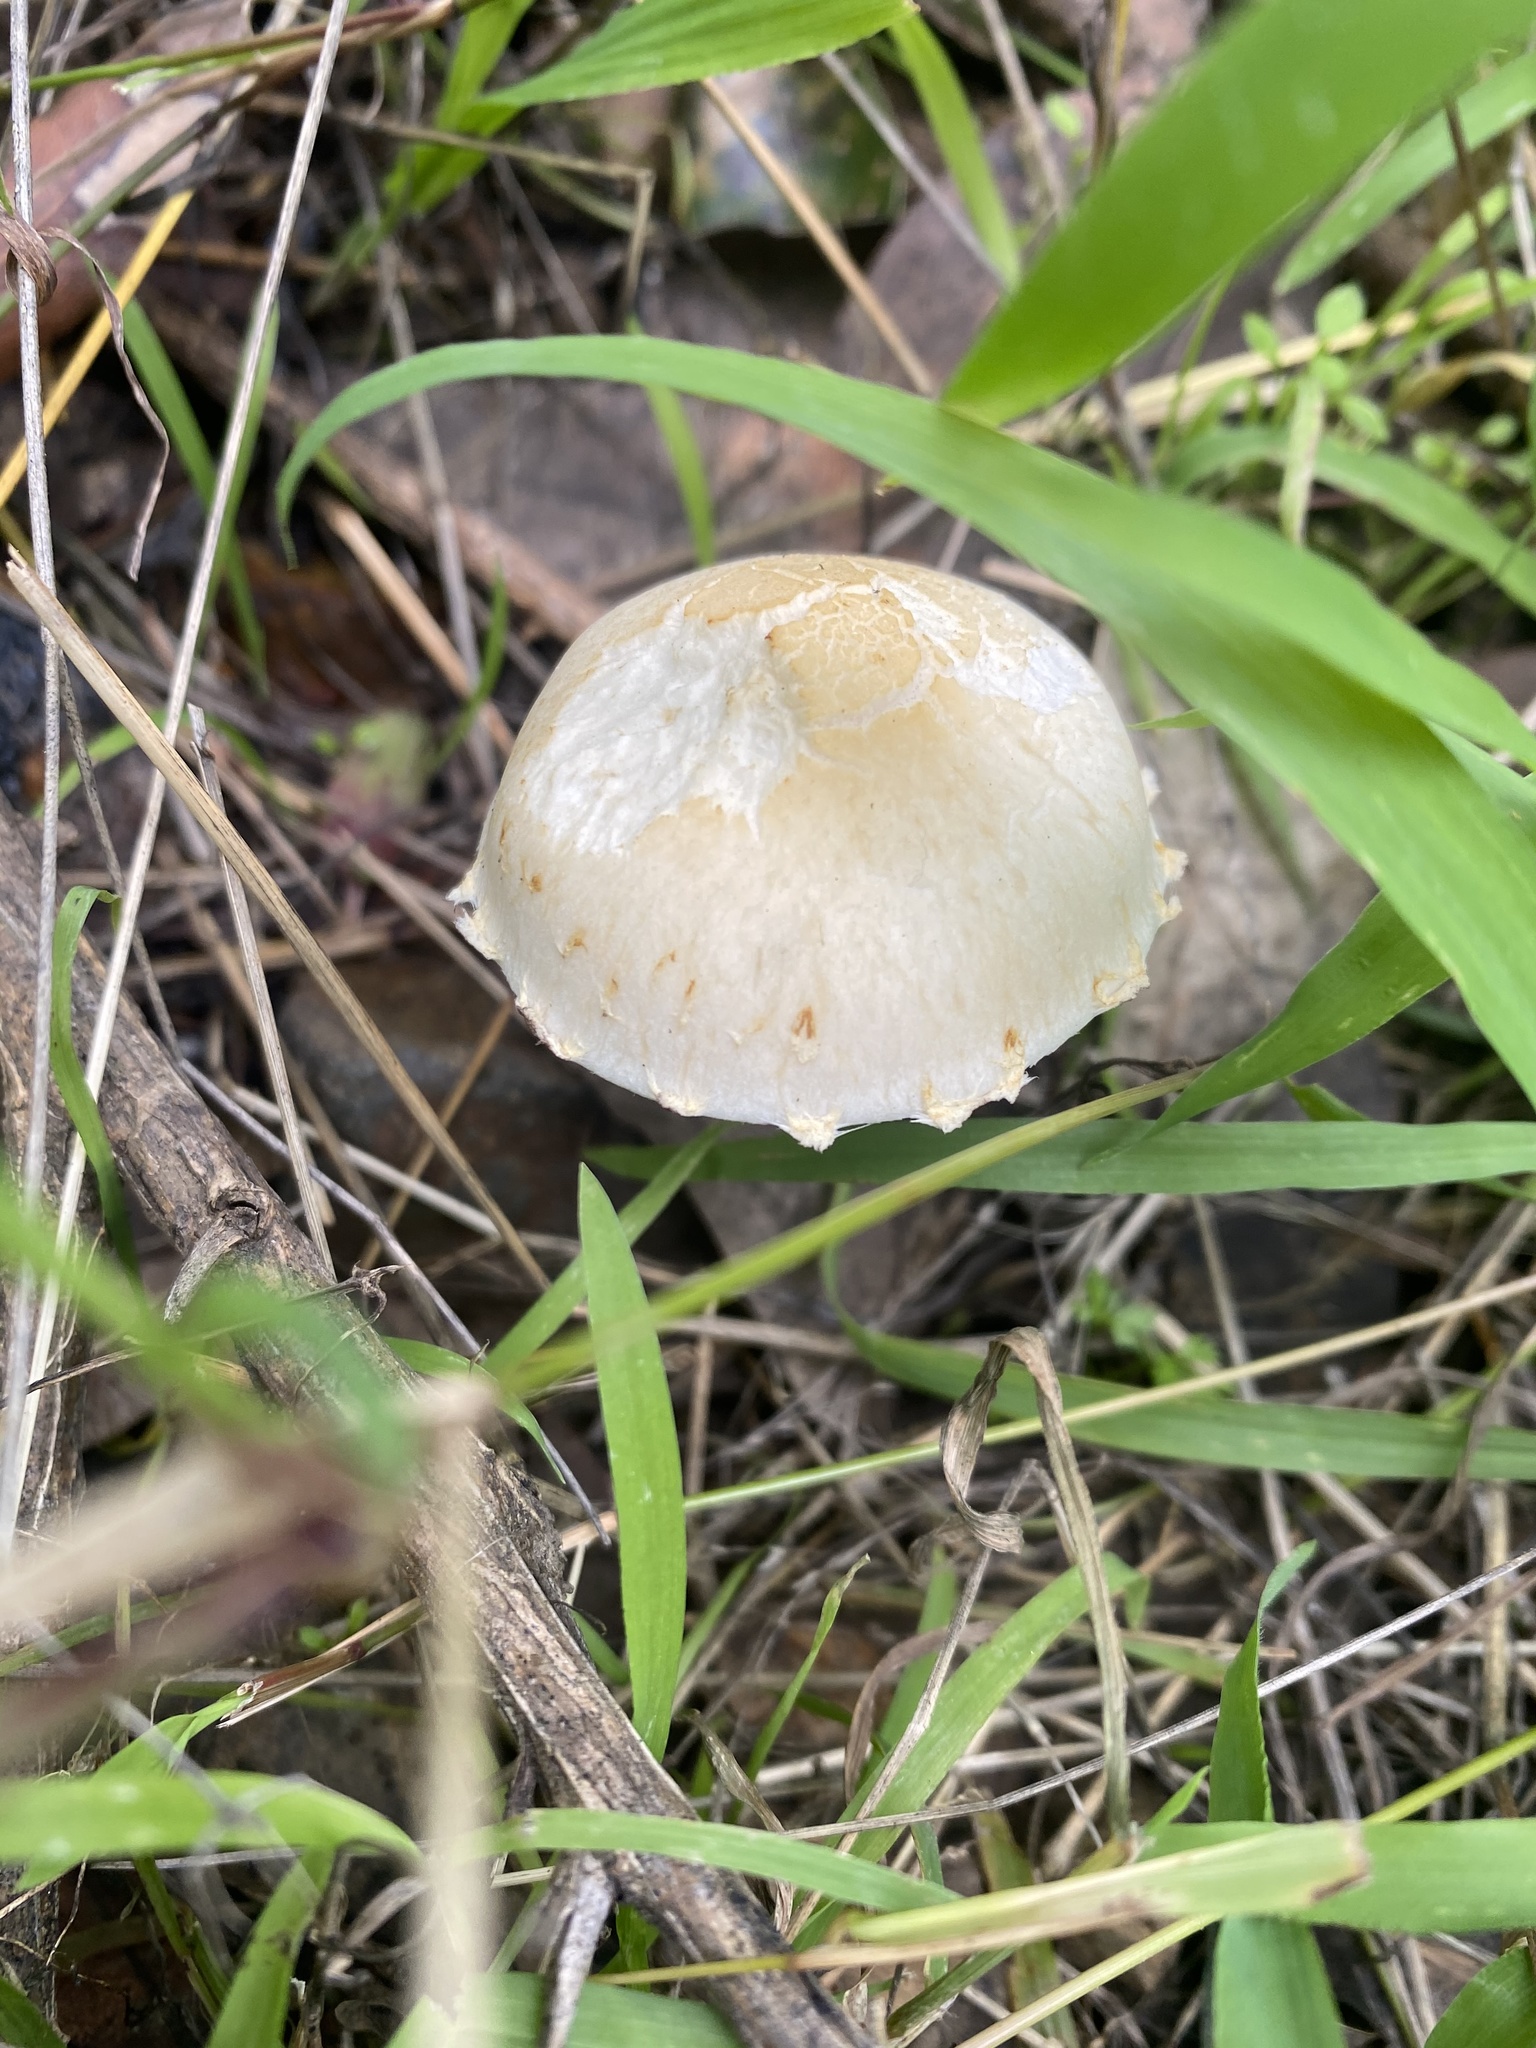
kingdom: Fungi
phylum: Basidiomycota
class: Agaricomycetes
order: Agaricales
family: Strophariaceae
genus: Leratiomyces
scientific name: Leratiomyces percevalii
